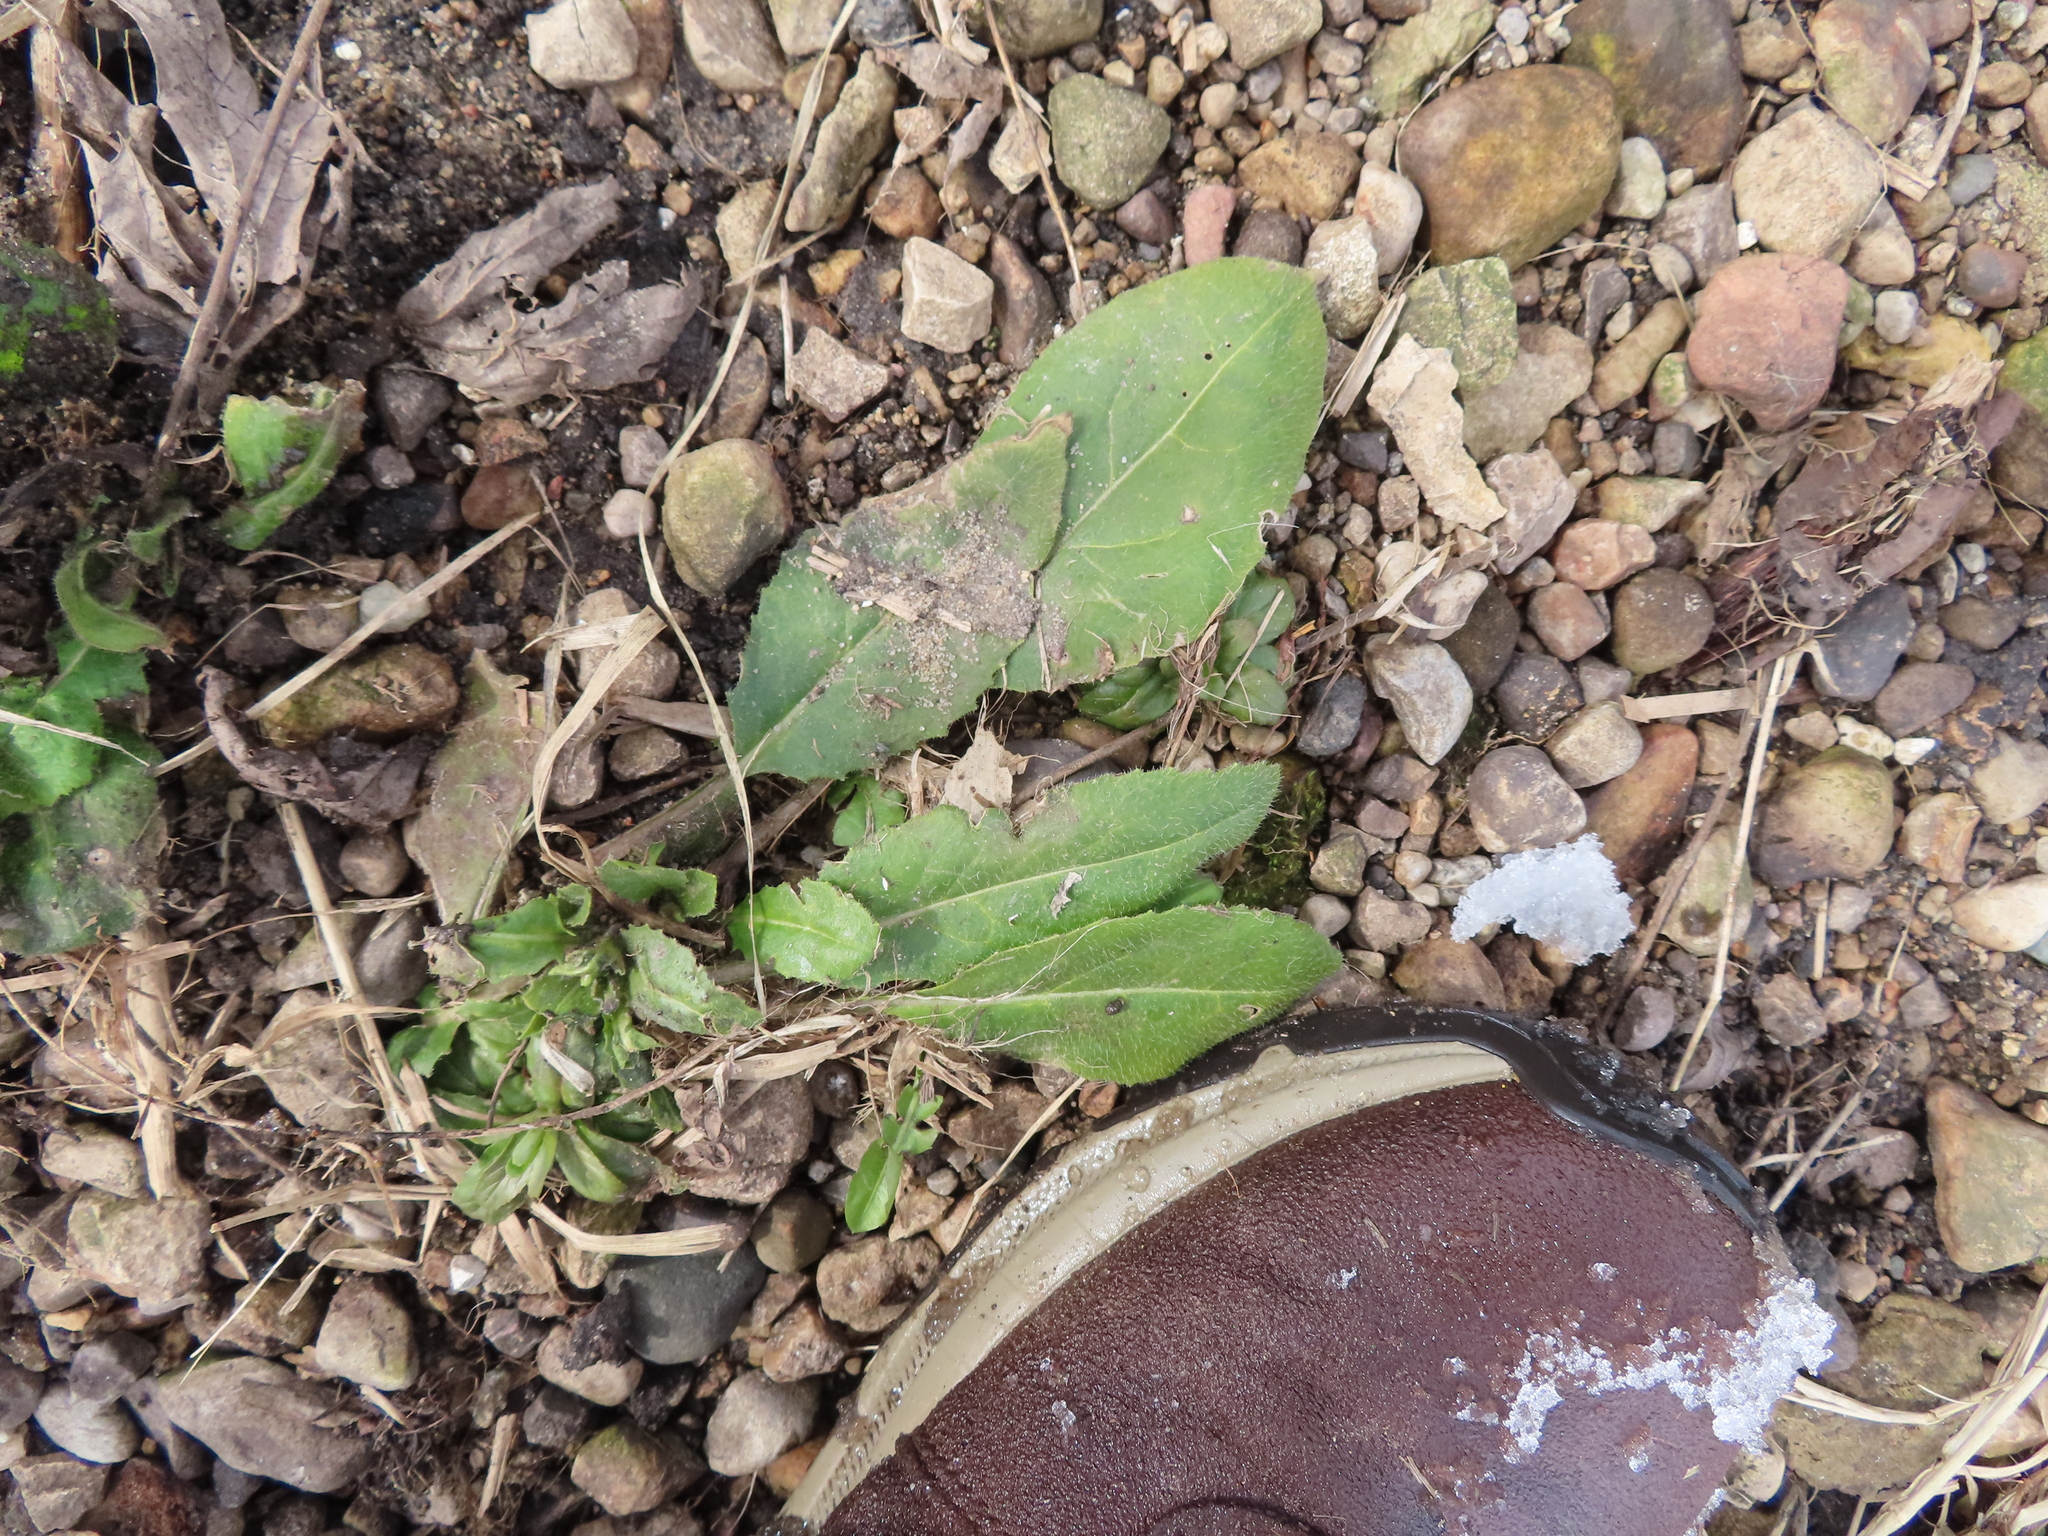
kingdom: Plantae
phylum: Tracheophyta
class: Magnoliopsida
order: Brassicales
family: Brassicaceae
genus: Hesperis
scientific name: Hesperis matronalis
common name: Dame's-violet
